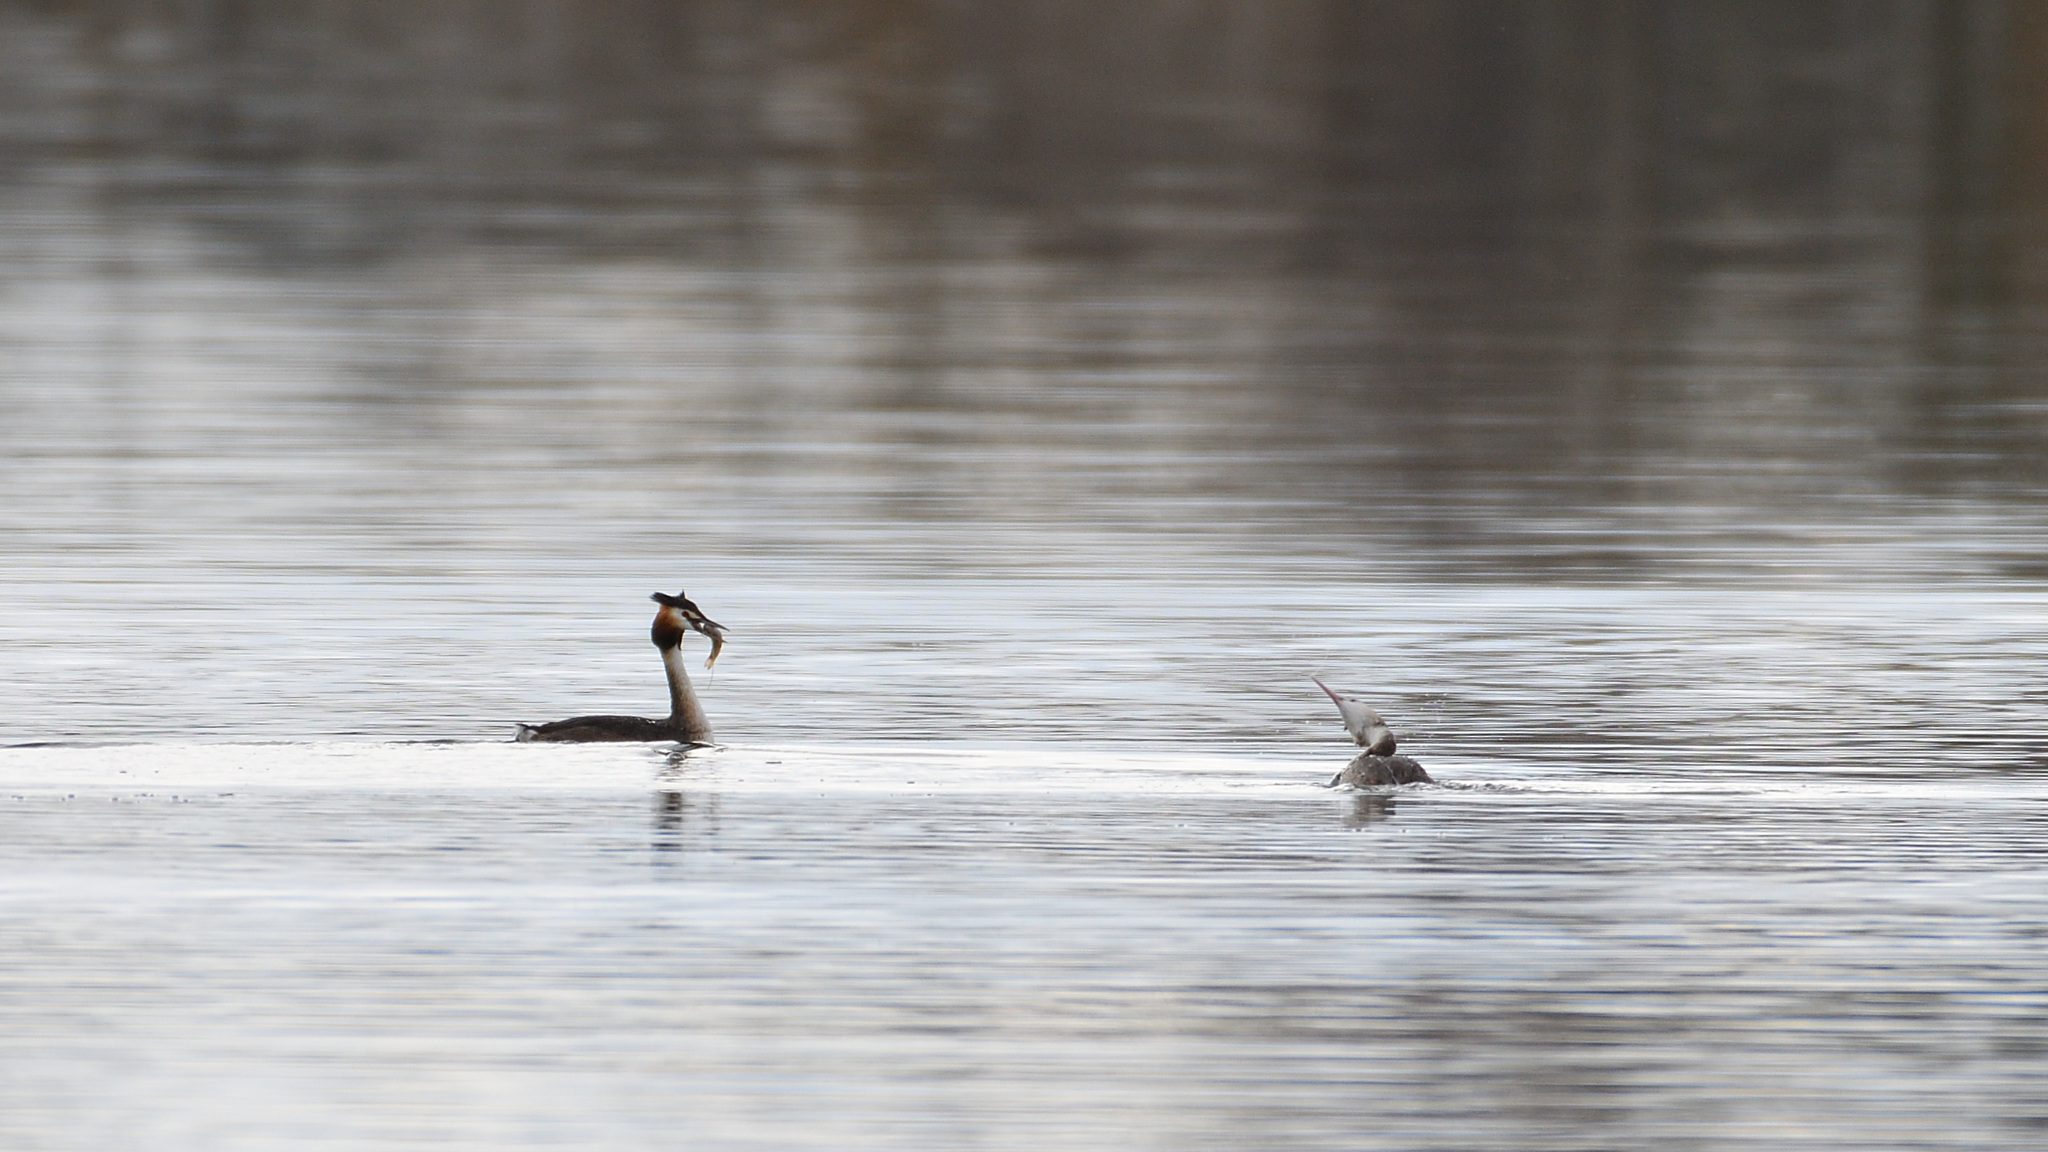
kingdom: Animalia
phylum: Chordata
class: Aves
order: Podicipediformes
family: Podicipedidae
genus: Podiceps
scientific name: Podiceps cristatus
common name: Great crested grebe
